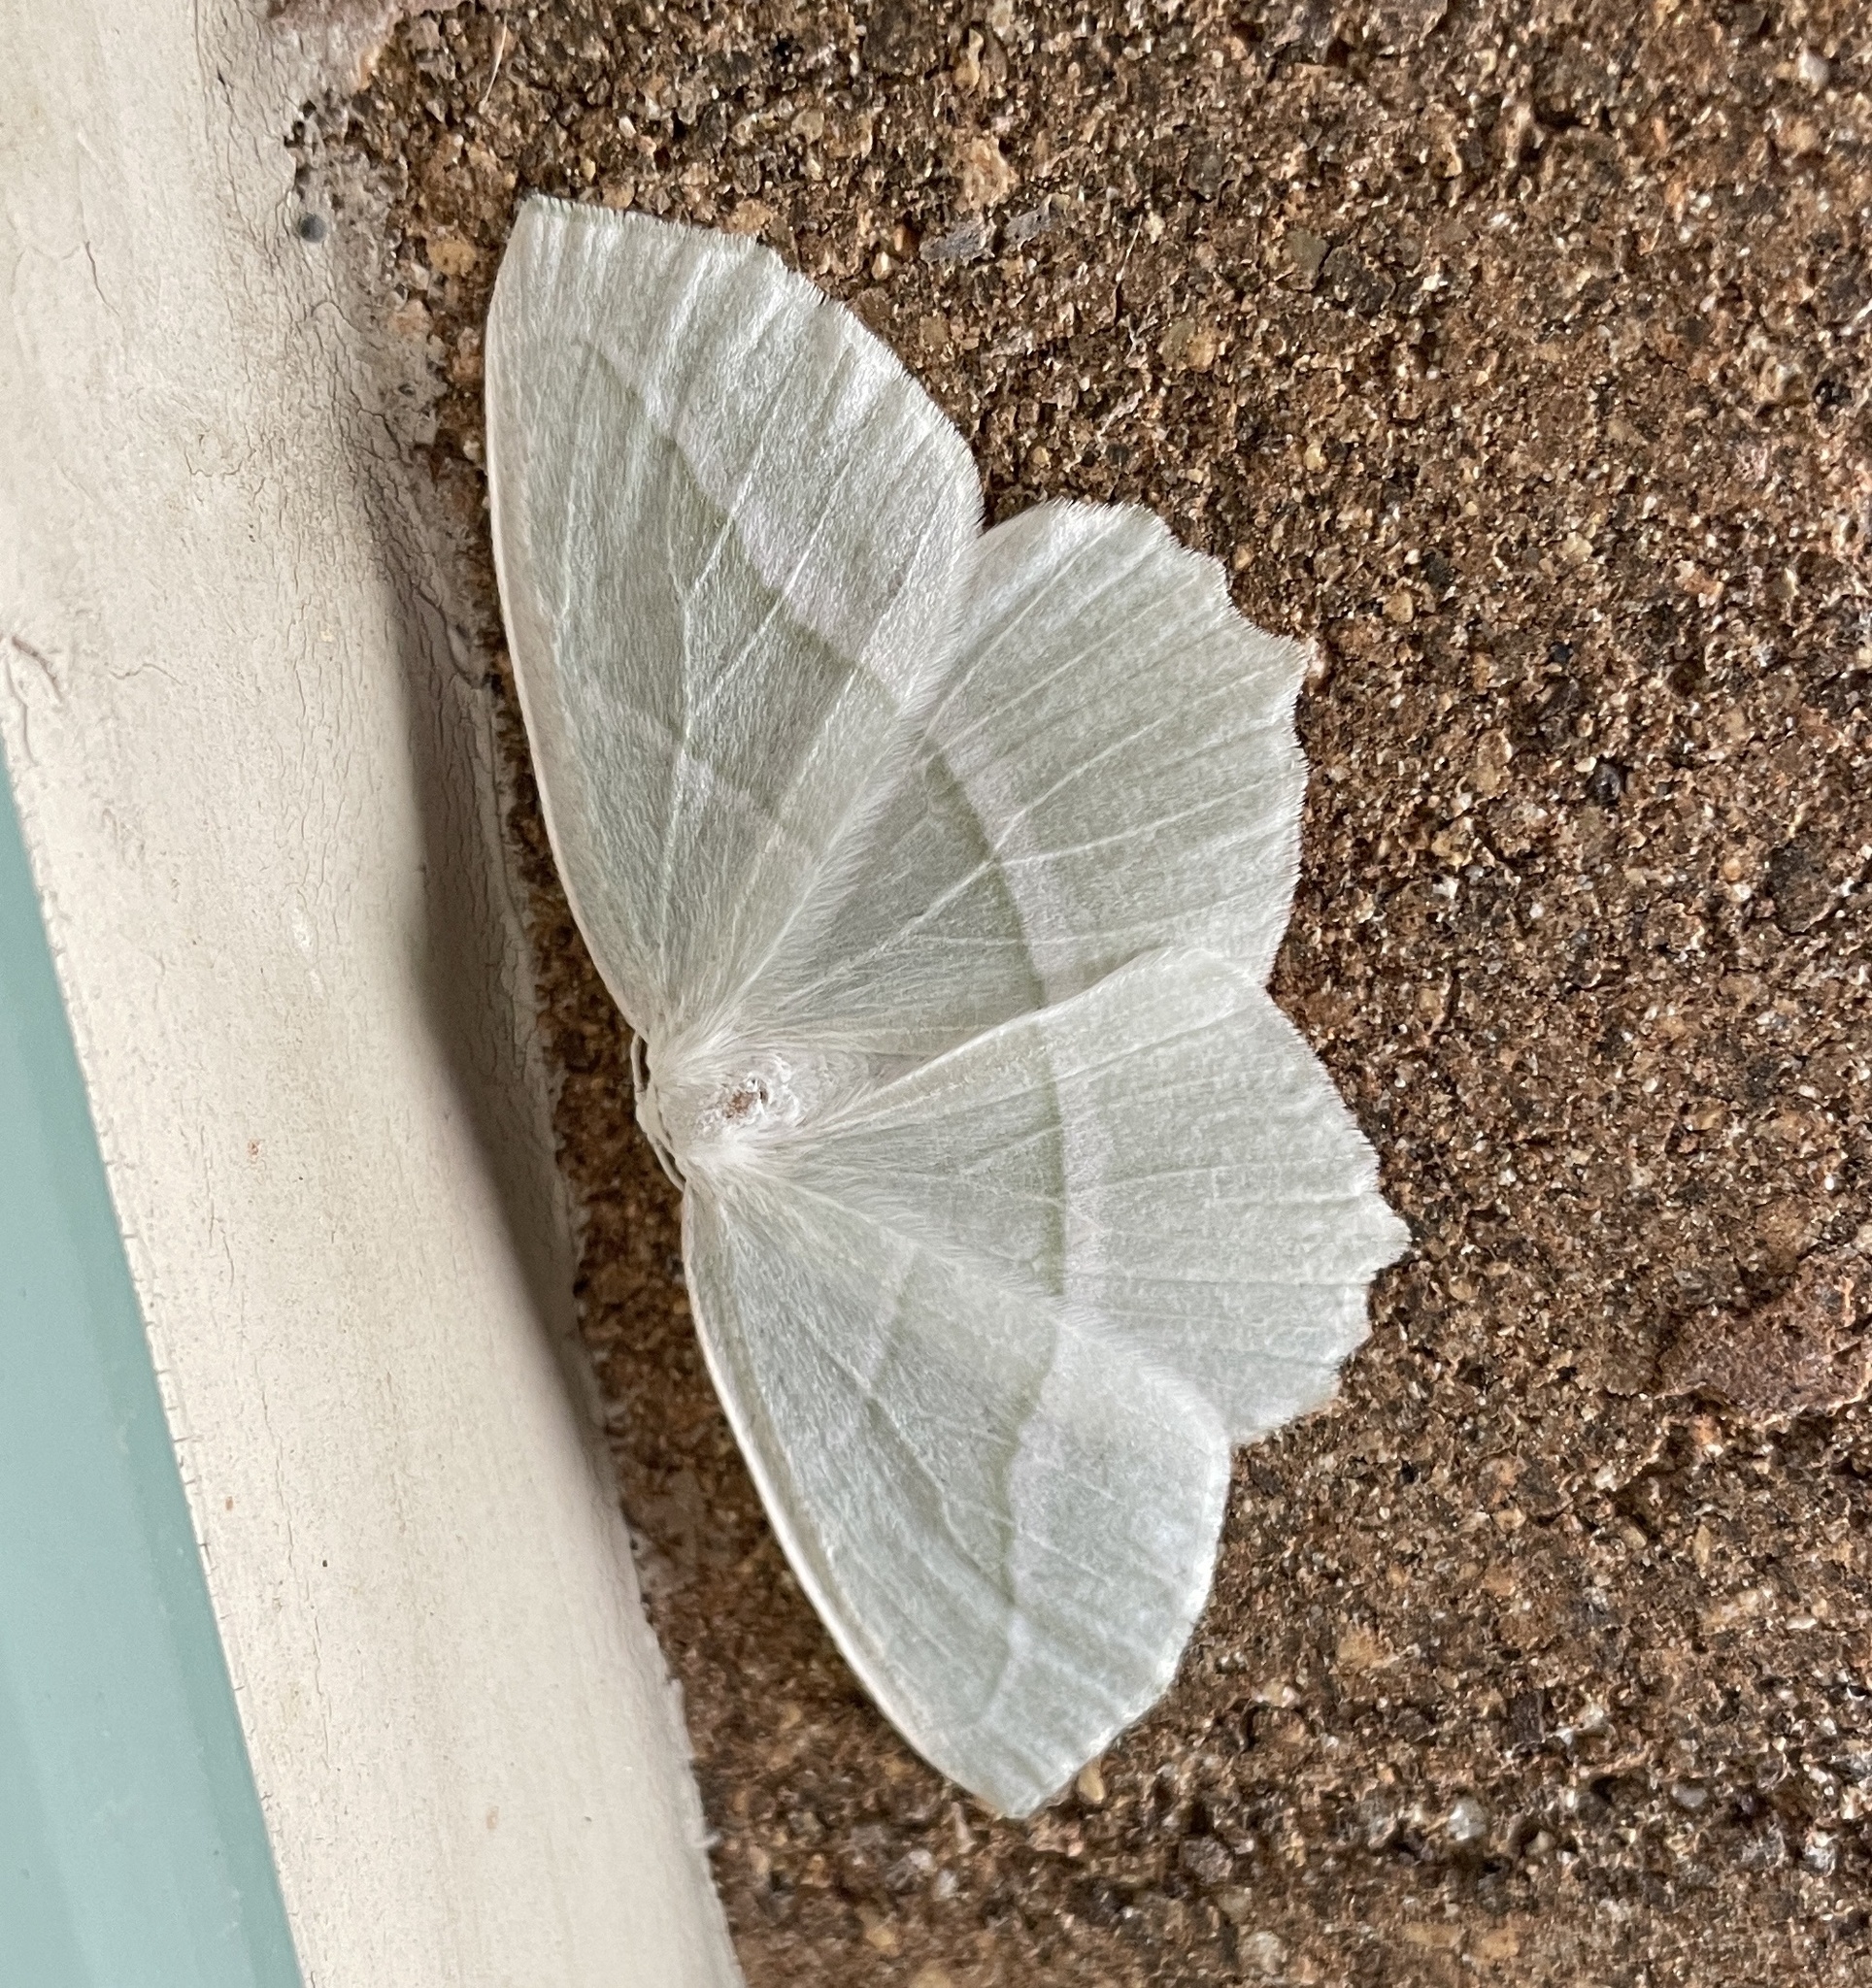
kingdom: Animalia
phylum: Arthropoda
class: Insecta
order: Lepidoptera
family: Geometridae
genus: Campaea
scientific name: Campaea perlata
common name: Fringed looper
